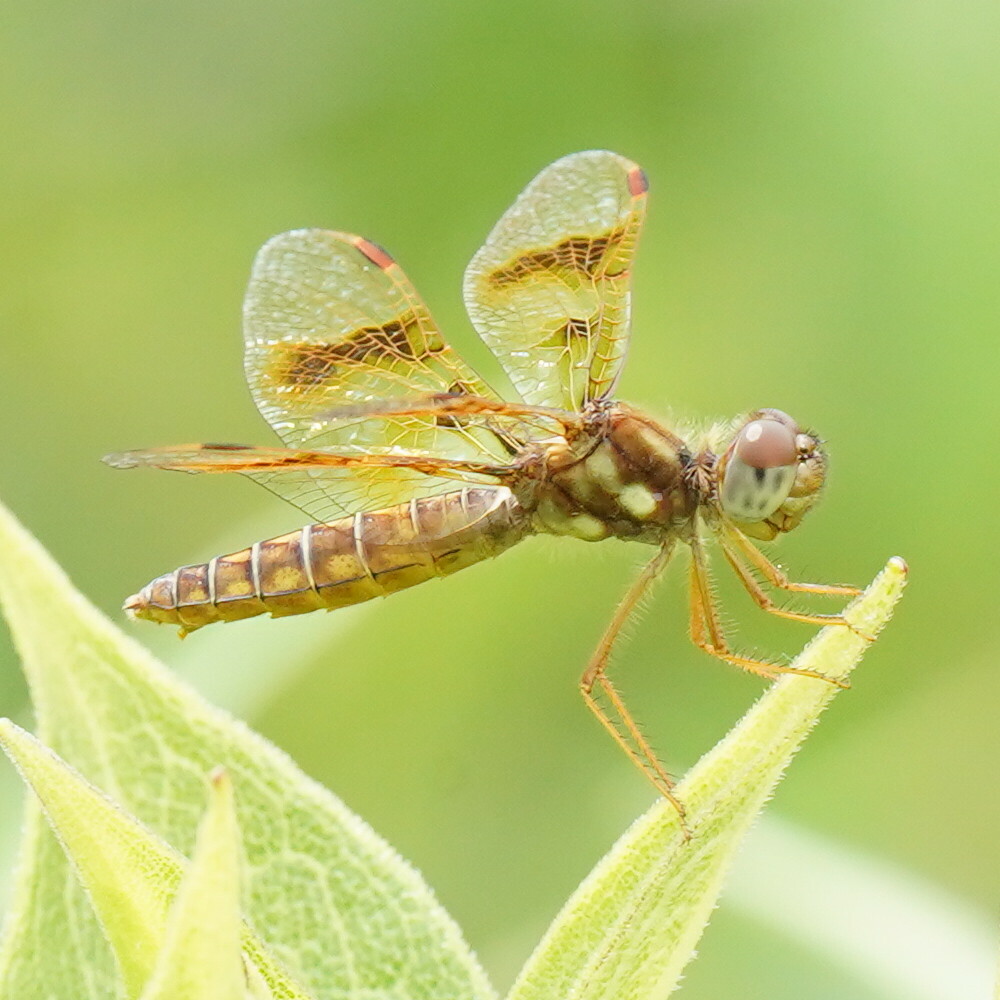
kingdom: Animalia
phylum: Arthropoda
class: Insecta
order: Odonata
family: Libellulidae
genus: Perithemis
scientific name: Perithemis tenera
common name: Eastern amberwing
